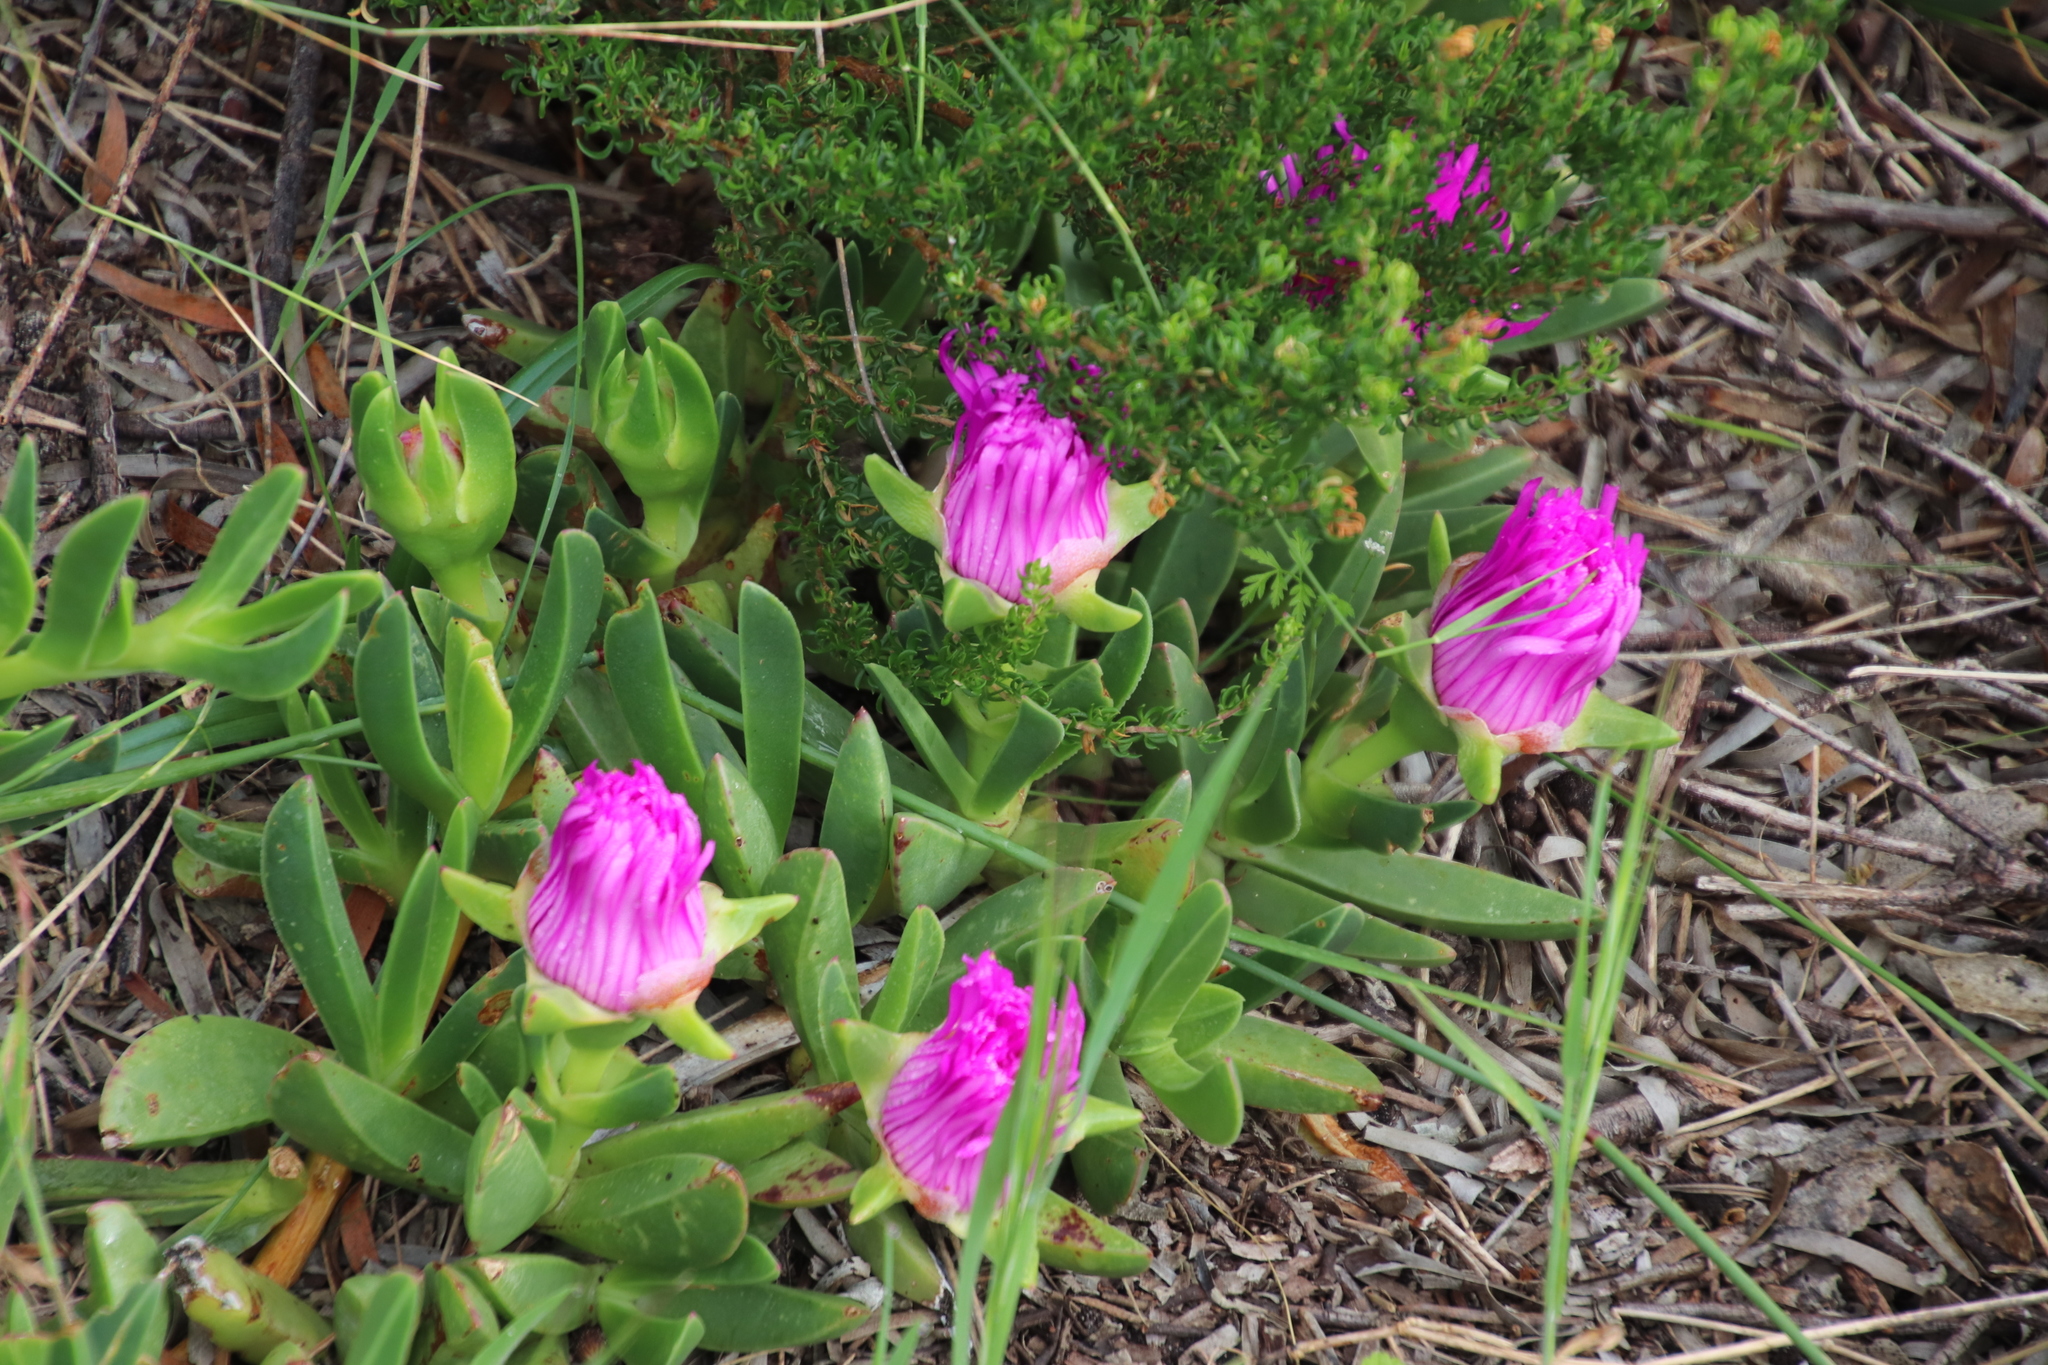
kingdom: Plantae
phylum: Tracheophyta
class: Magnoliopsida
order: Caryophyllales
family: Aizoaceae
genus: Carpobrotus
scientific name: Carpobrotus acinaciformis
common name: Sally-my-handsome
